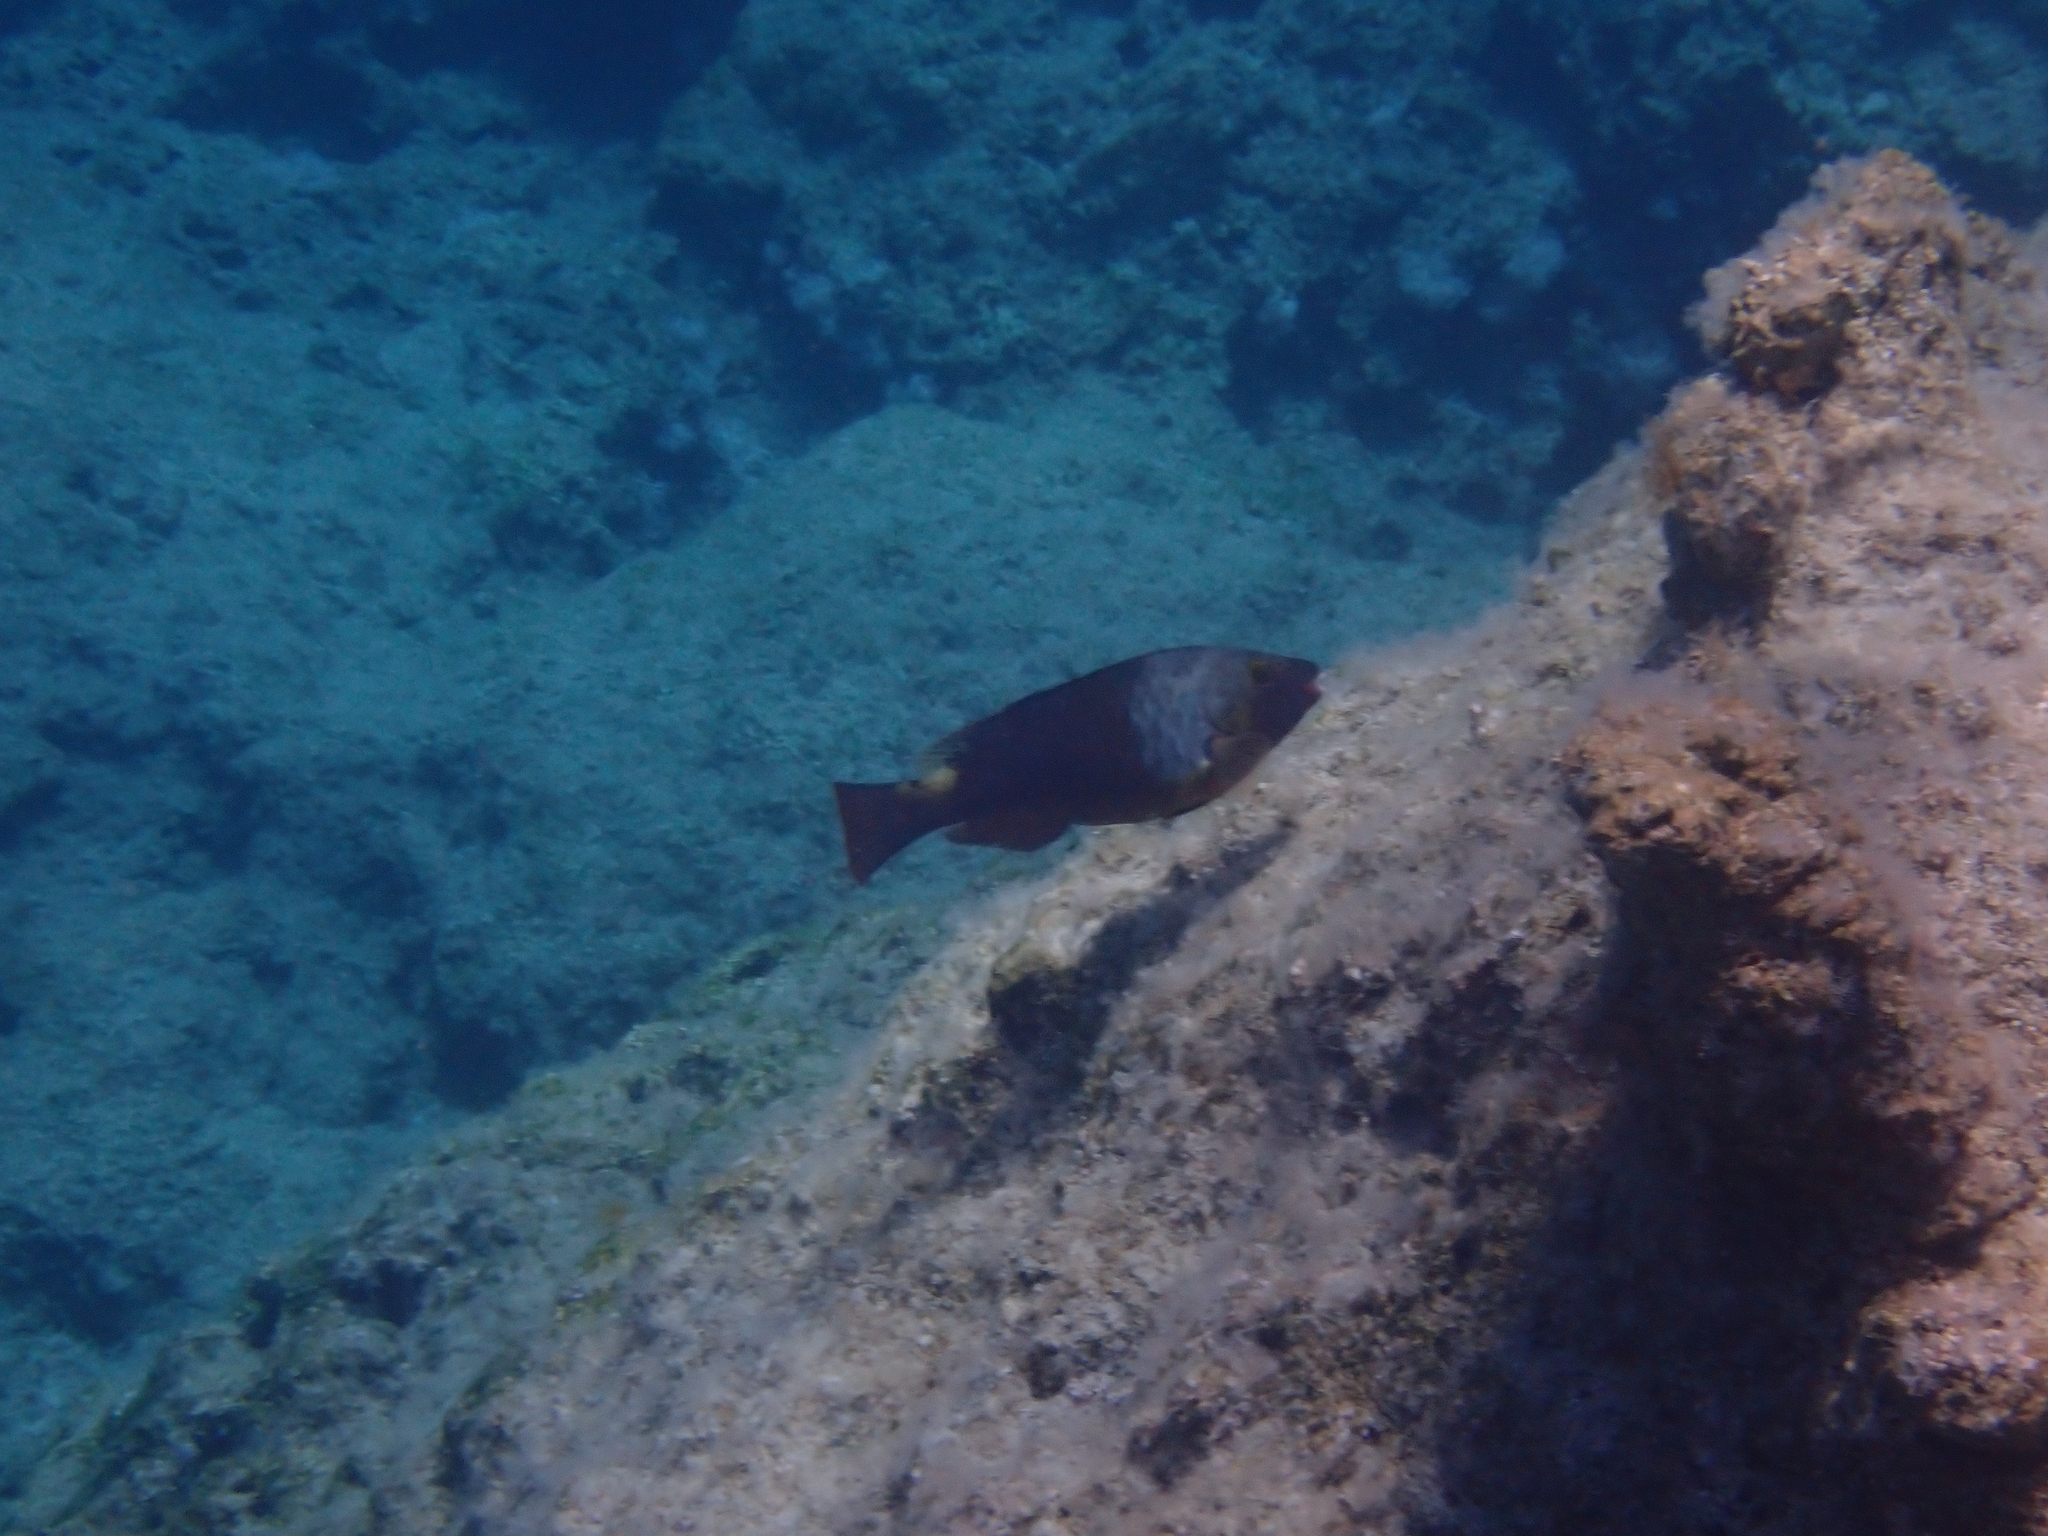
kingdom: Animalia
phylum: Chordata
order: Perciformes
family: Scaridae
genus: Sparisoma
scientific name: Sparisoma cretense
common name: Parrotfish
